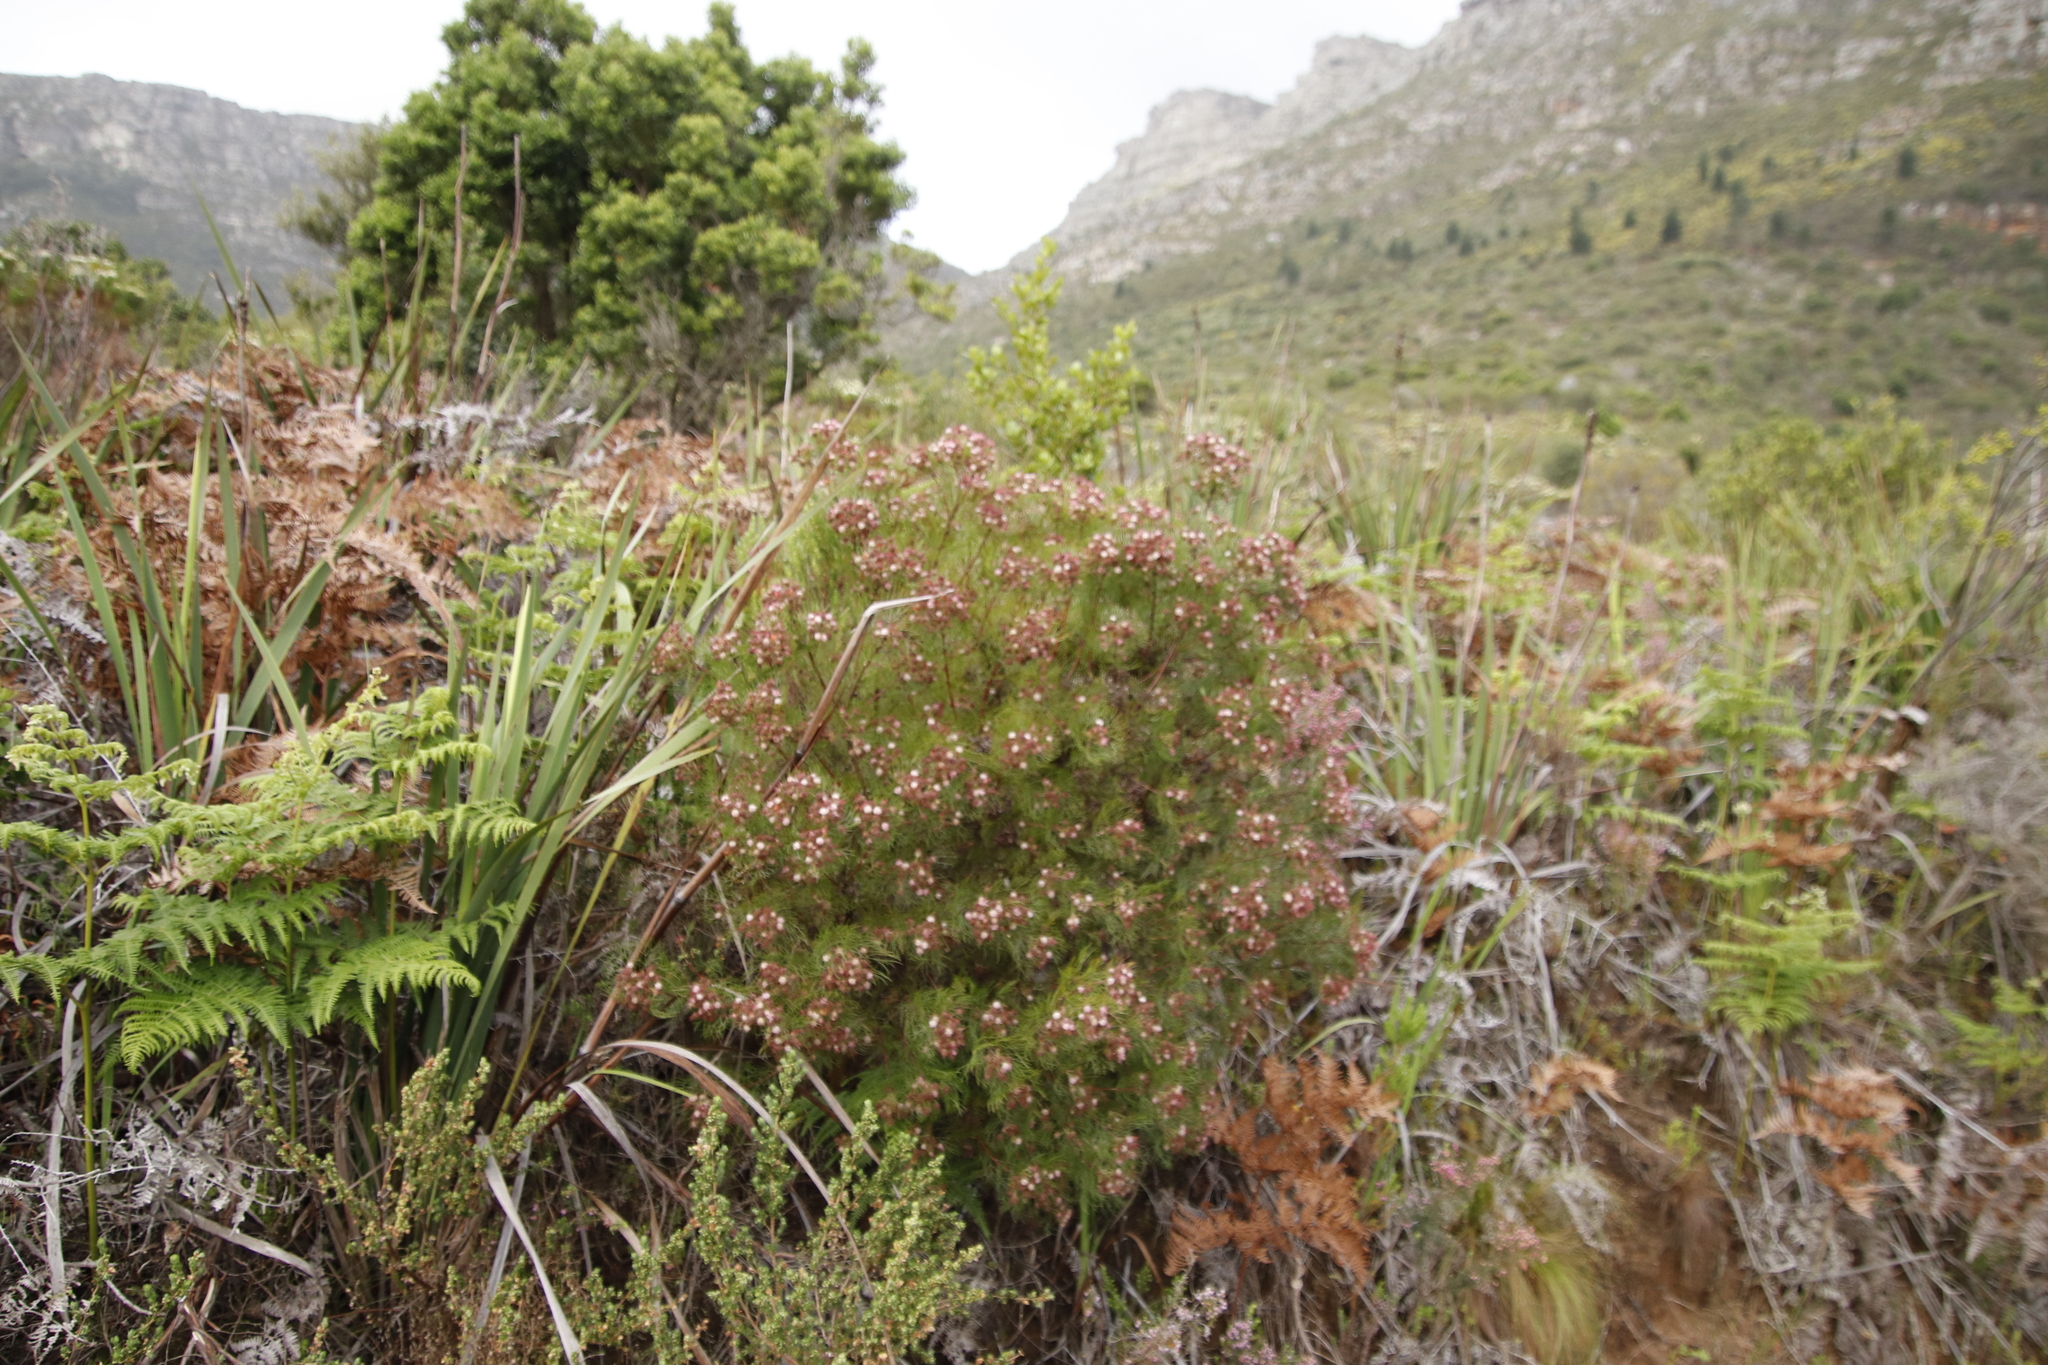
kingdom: Plantae
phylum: Tracheophyta
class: Magnoliopsida
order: Proteales
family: Proteaceae
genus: Serruria
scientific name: Serruria fasciflora
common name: Common pin spiderhead
